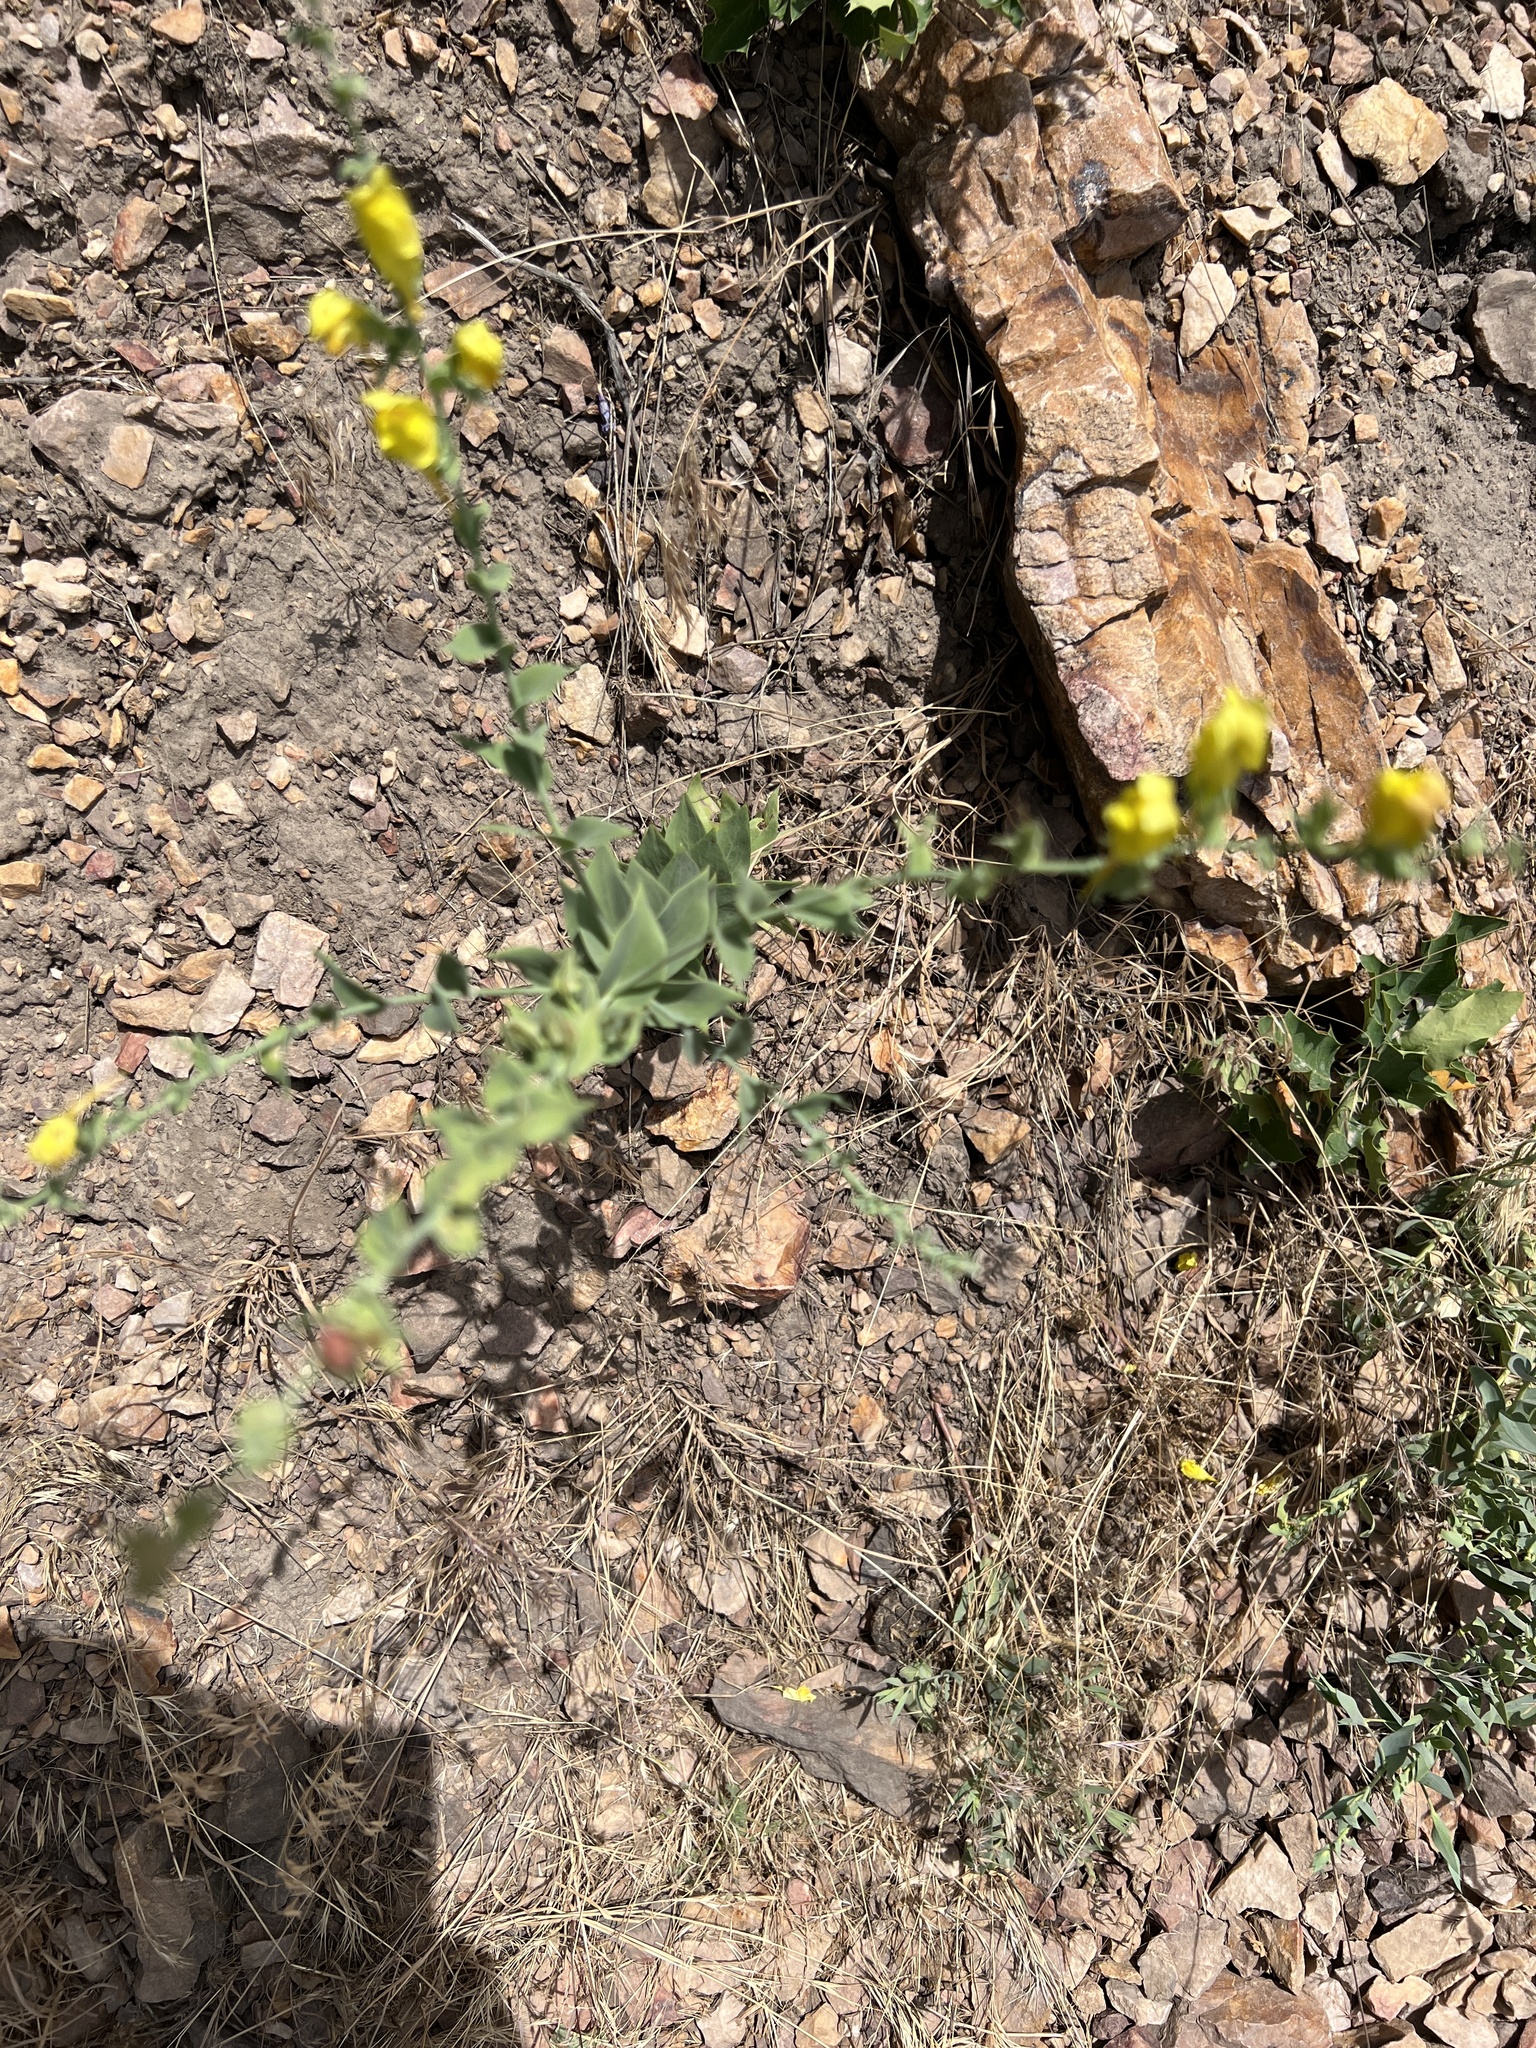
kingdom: Plantae
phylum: Tracheophyta
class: Magnoliopsida
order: Lamiales
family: Plantaginaceae
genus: Linaria
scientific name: Linaria dalmatica
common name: Dalmatian toadflax
